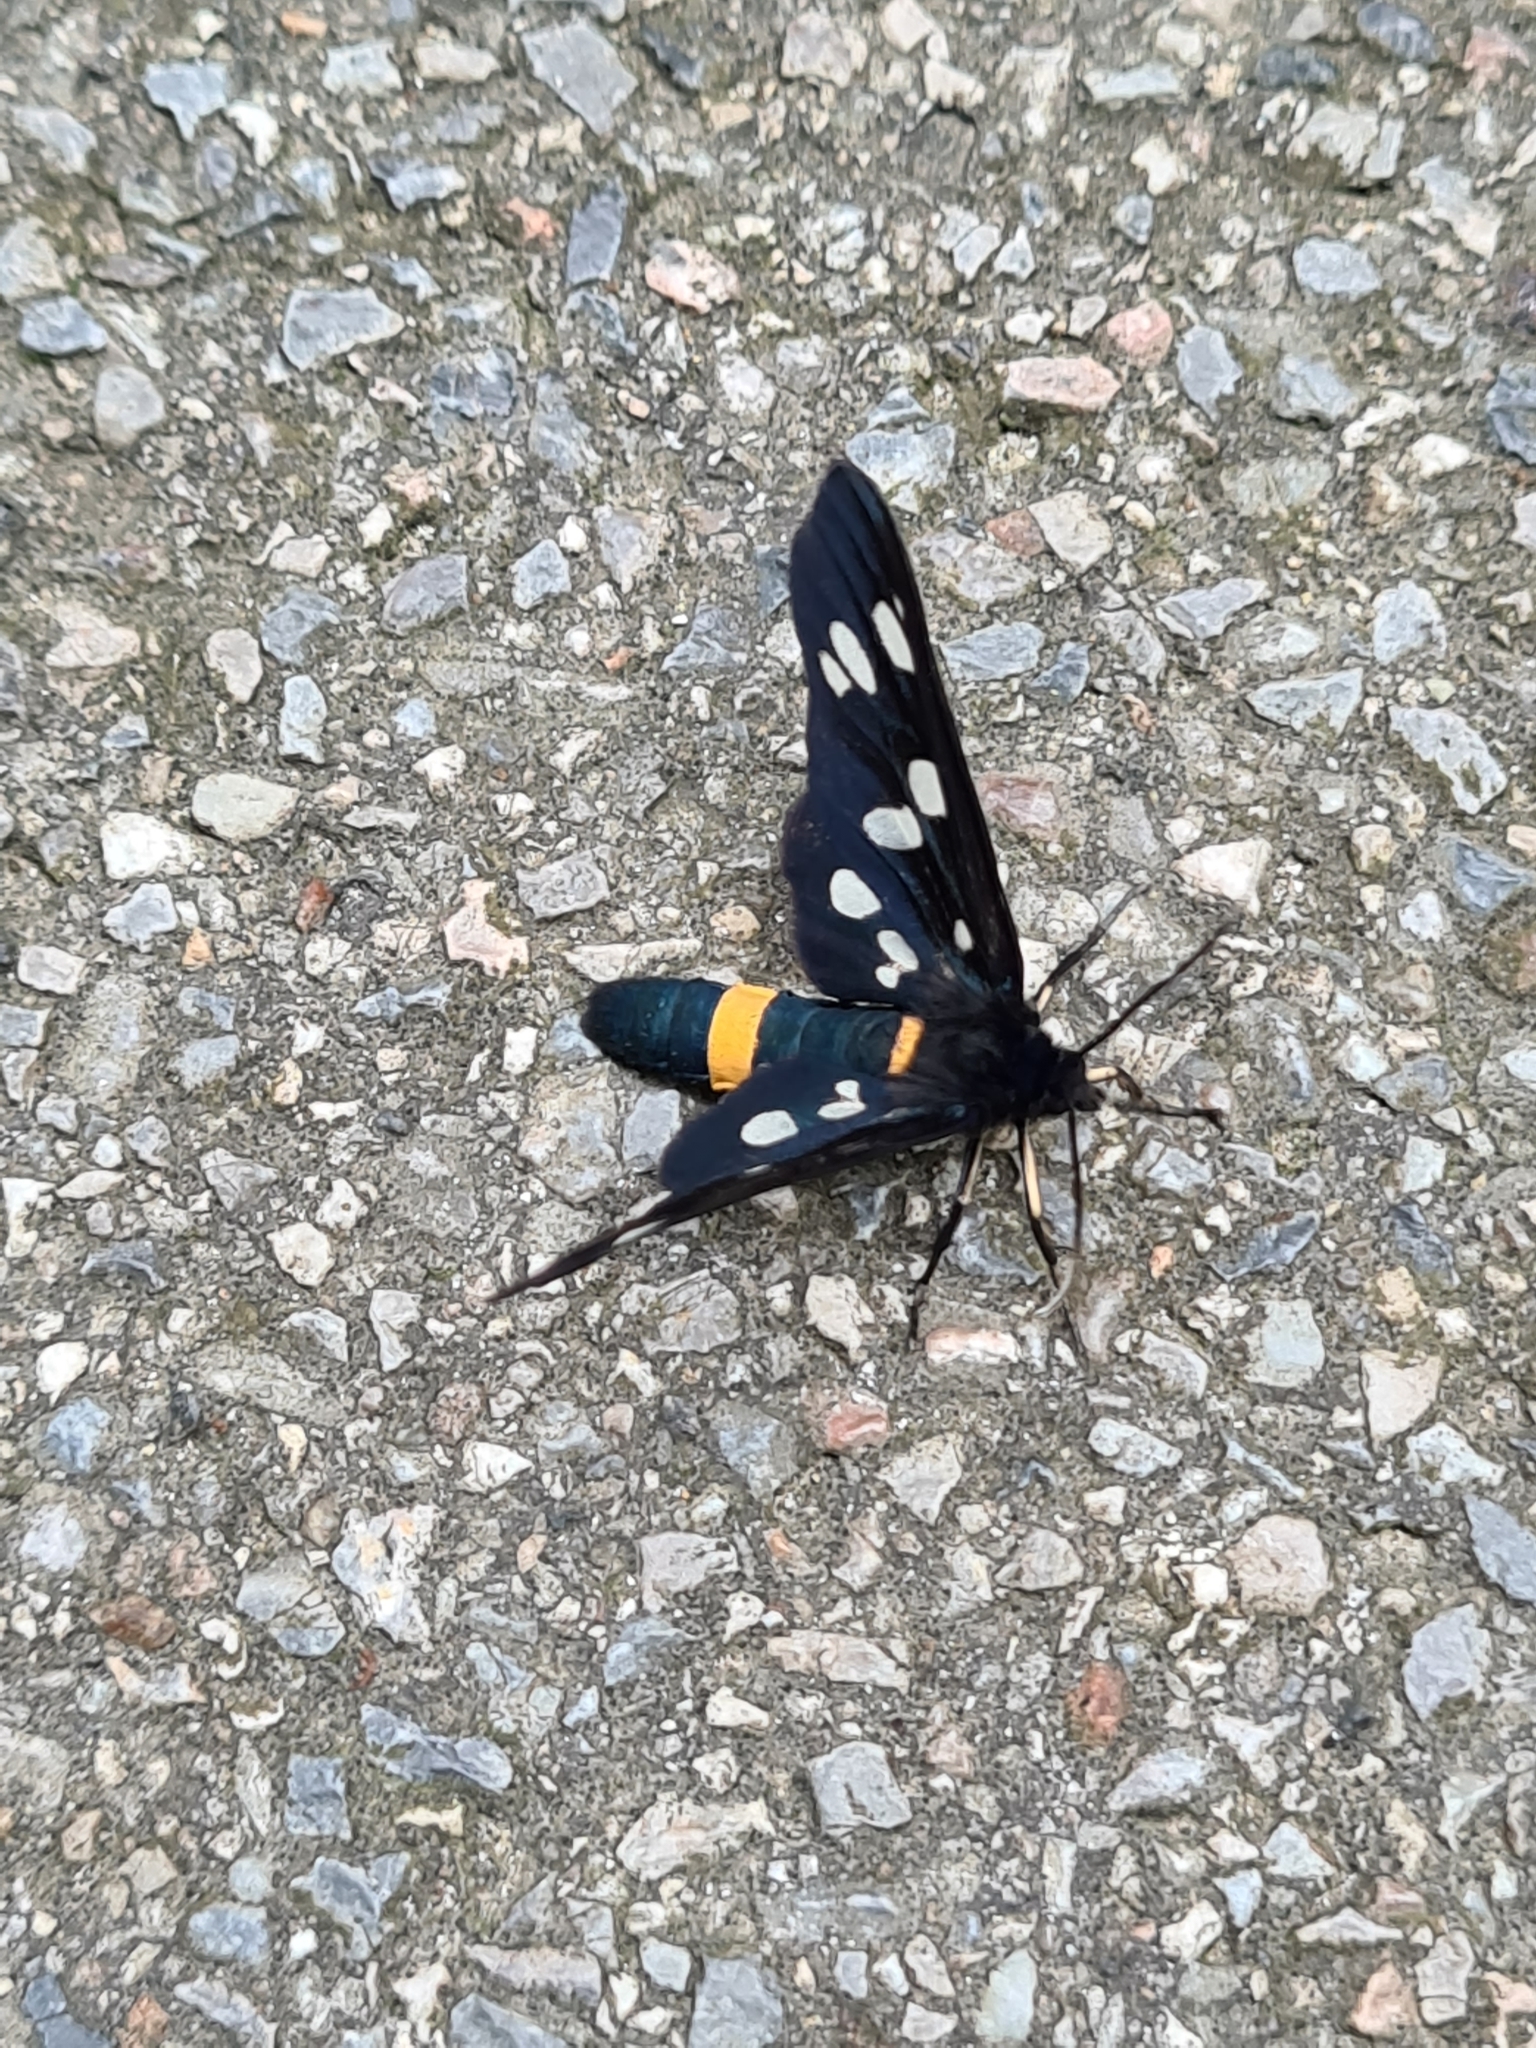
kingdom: Animalia
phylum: Arthropoda
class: Insecta
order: Lepidoptera
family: Erebidae
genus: Amata
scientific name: Amata phegea
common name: Nine-spotted
